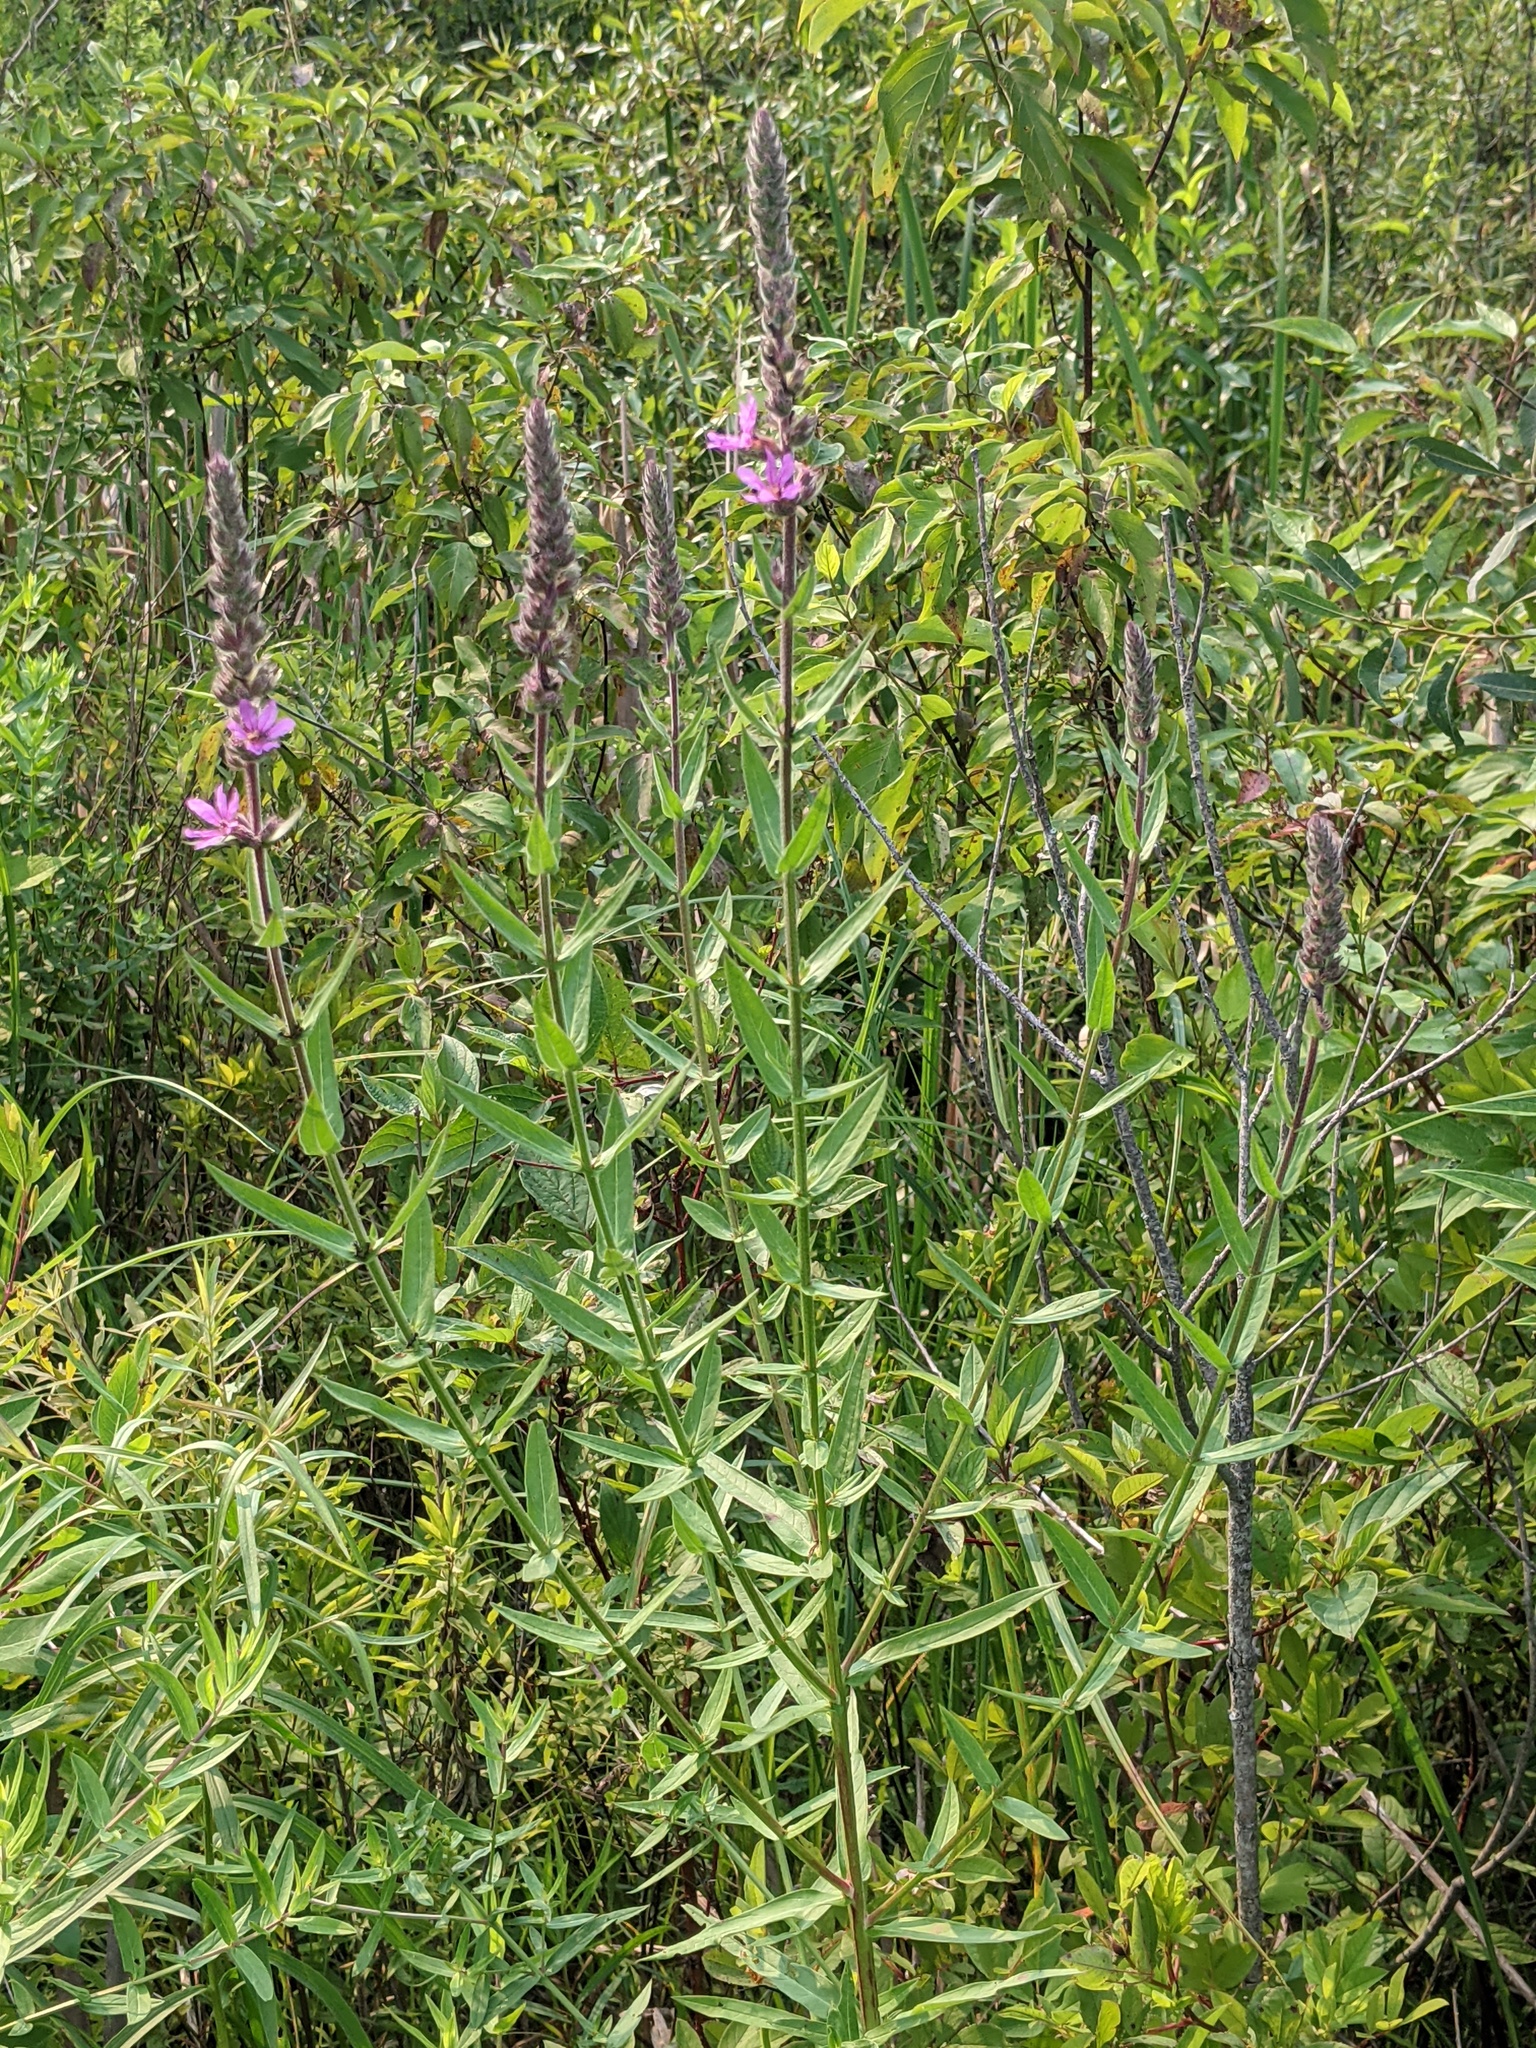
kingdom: Plantae
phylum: Tracheophyta
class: Magnoliopsida
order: Myrtales
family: Lythraceae
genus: Lythrum
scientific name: Lythrum salicaria
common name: Purple loosestrife
